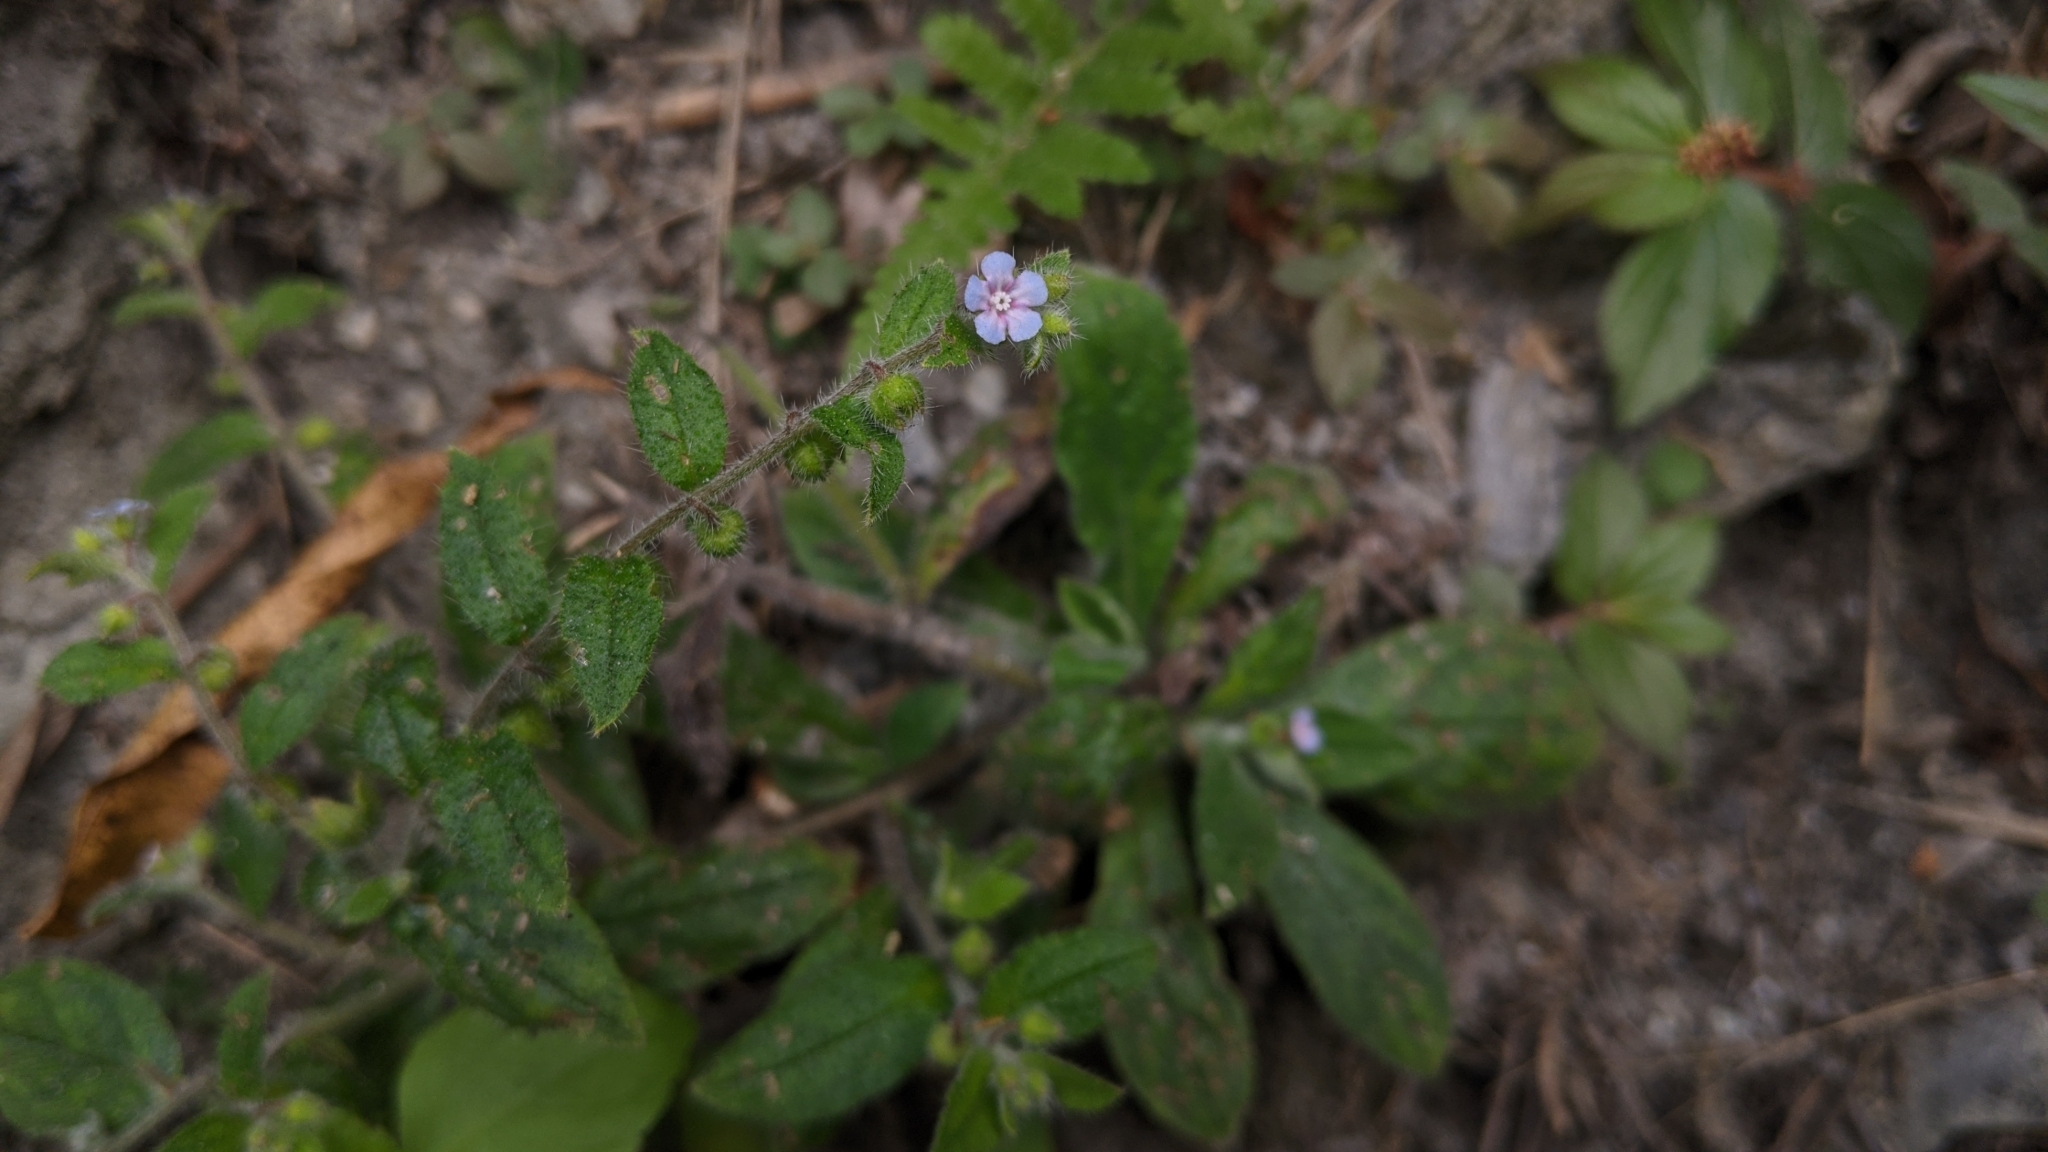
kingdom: Plantae
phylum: Tracheophyta
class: Magnoliopsida
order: Boraginales
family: Boraginaceae
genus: Thyrocarpus
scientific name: Thyrocarpus sampsonii
